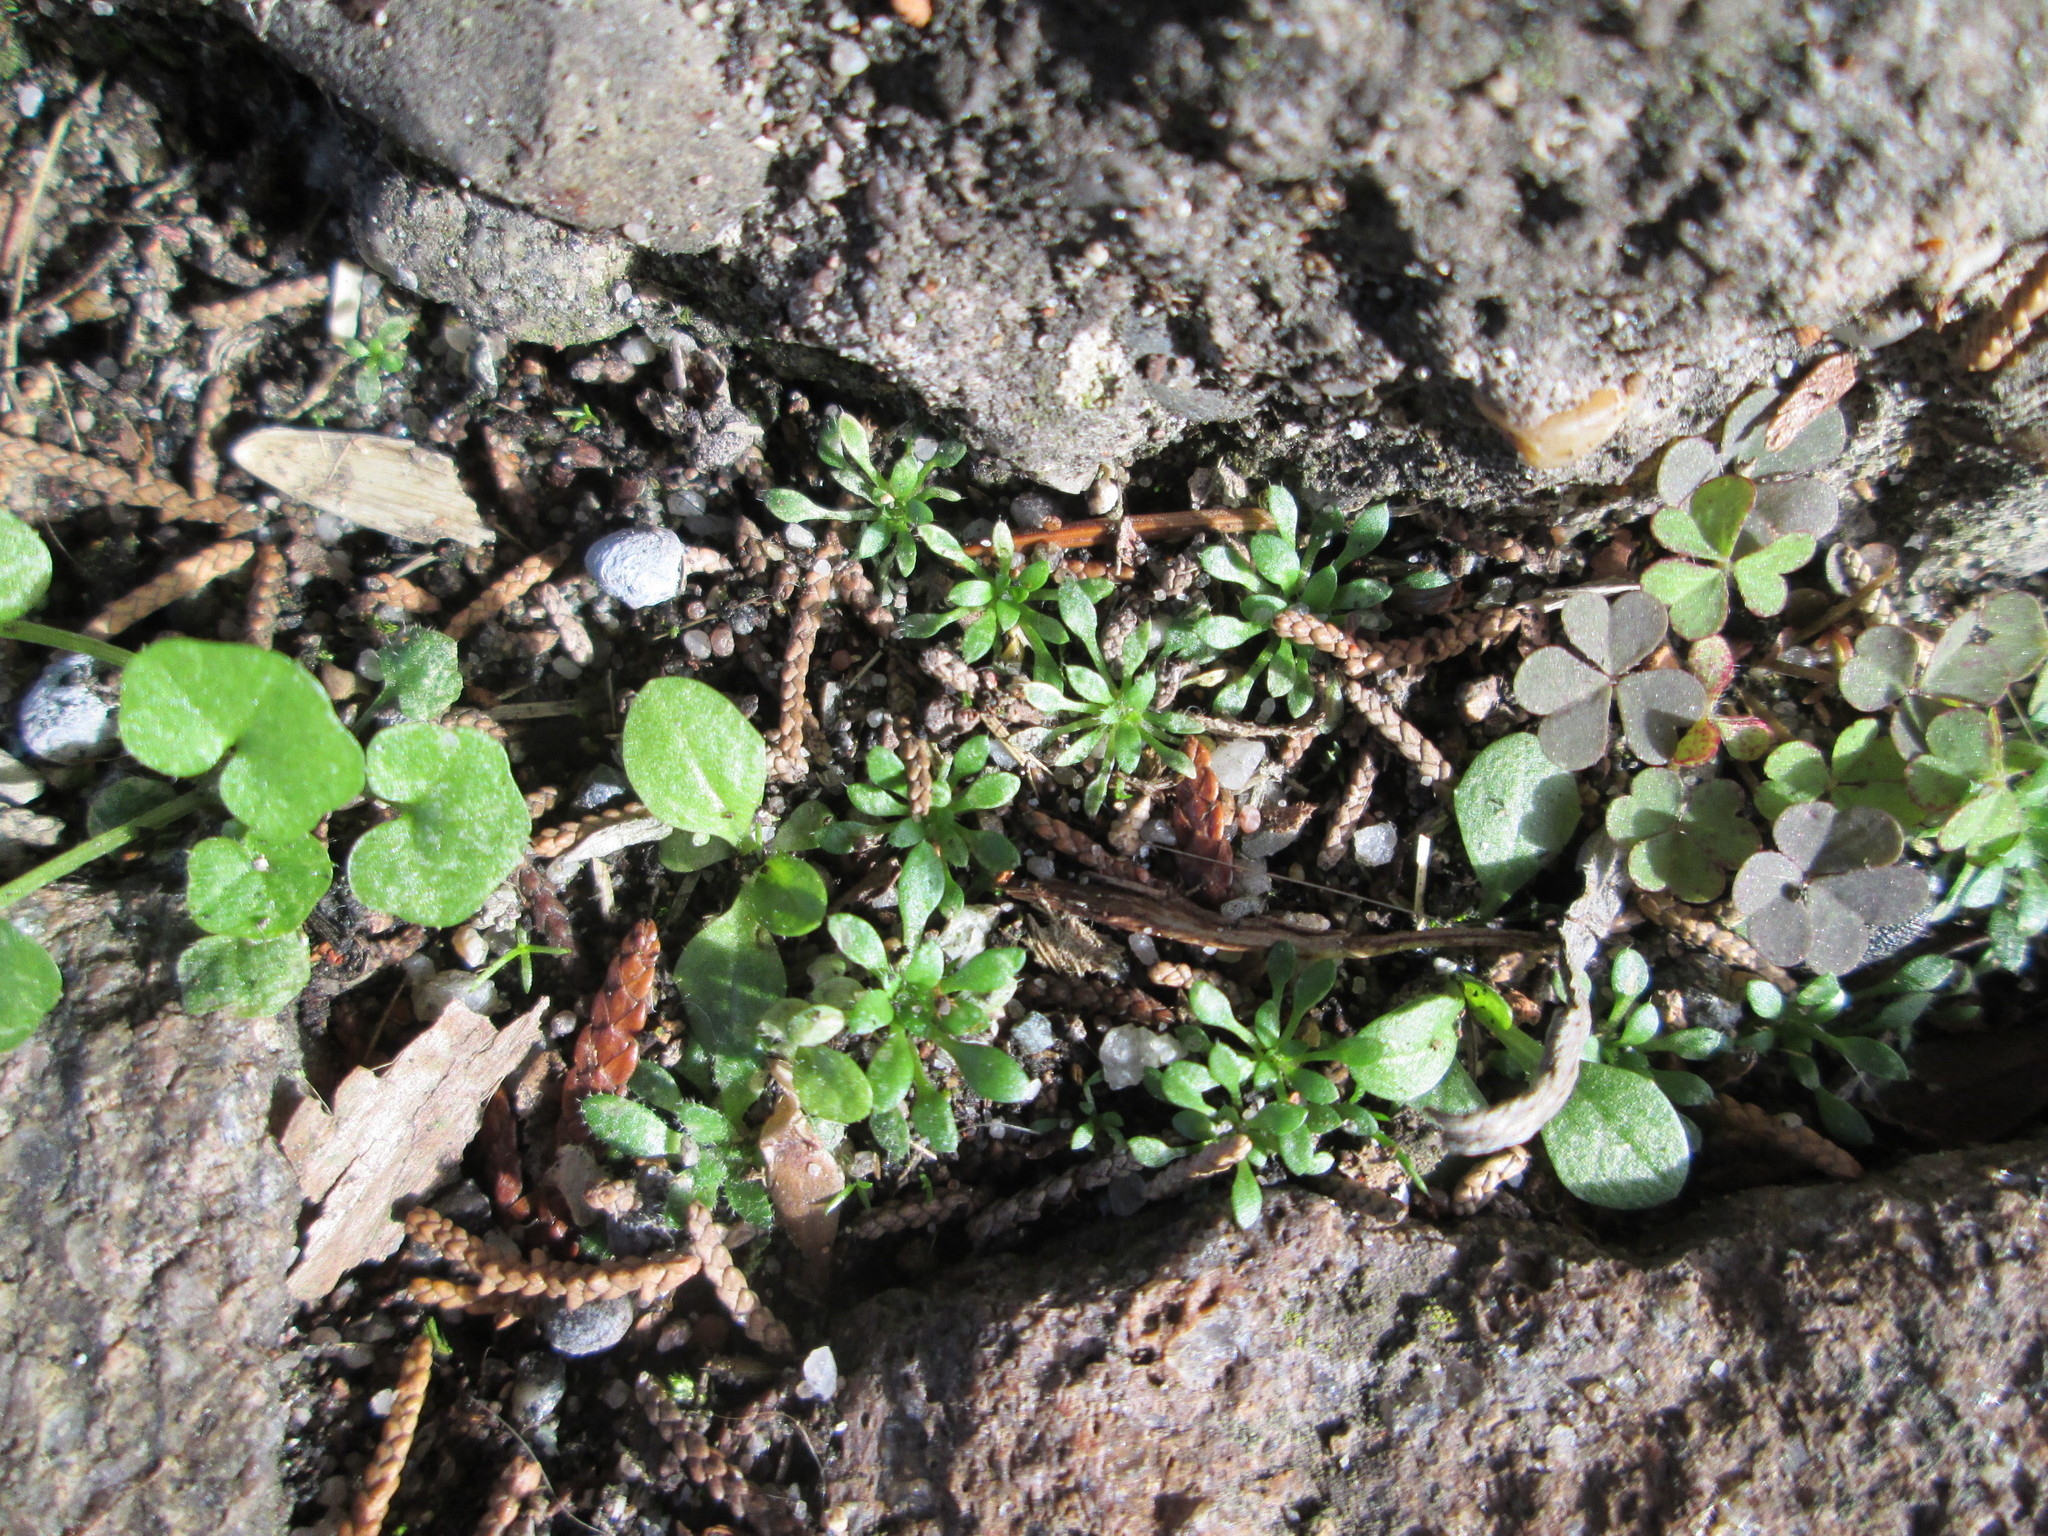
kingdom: Plantae
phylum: Tracheophyta
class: Magnoliopsida
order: Brassicales
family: Brassicaceae
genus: Draba
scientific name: Draba verna
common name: Spring draba
